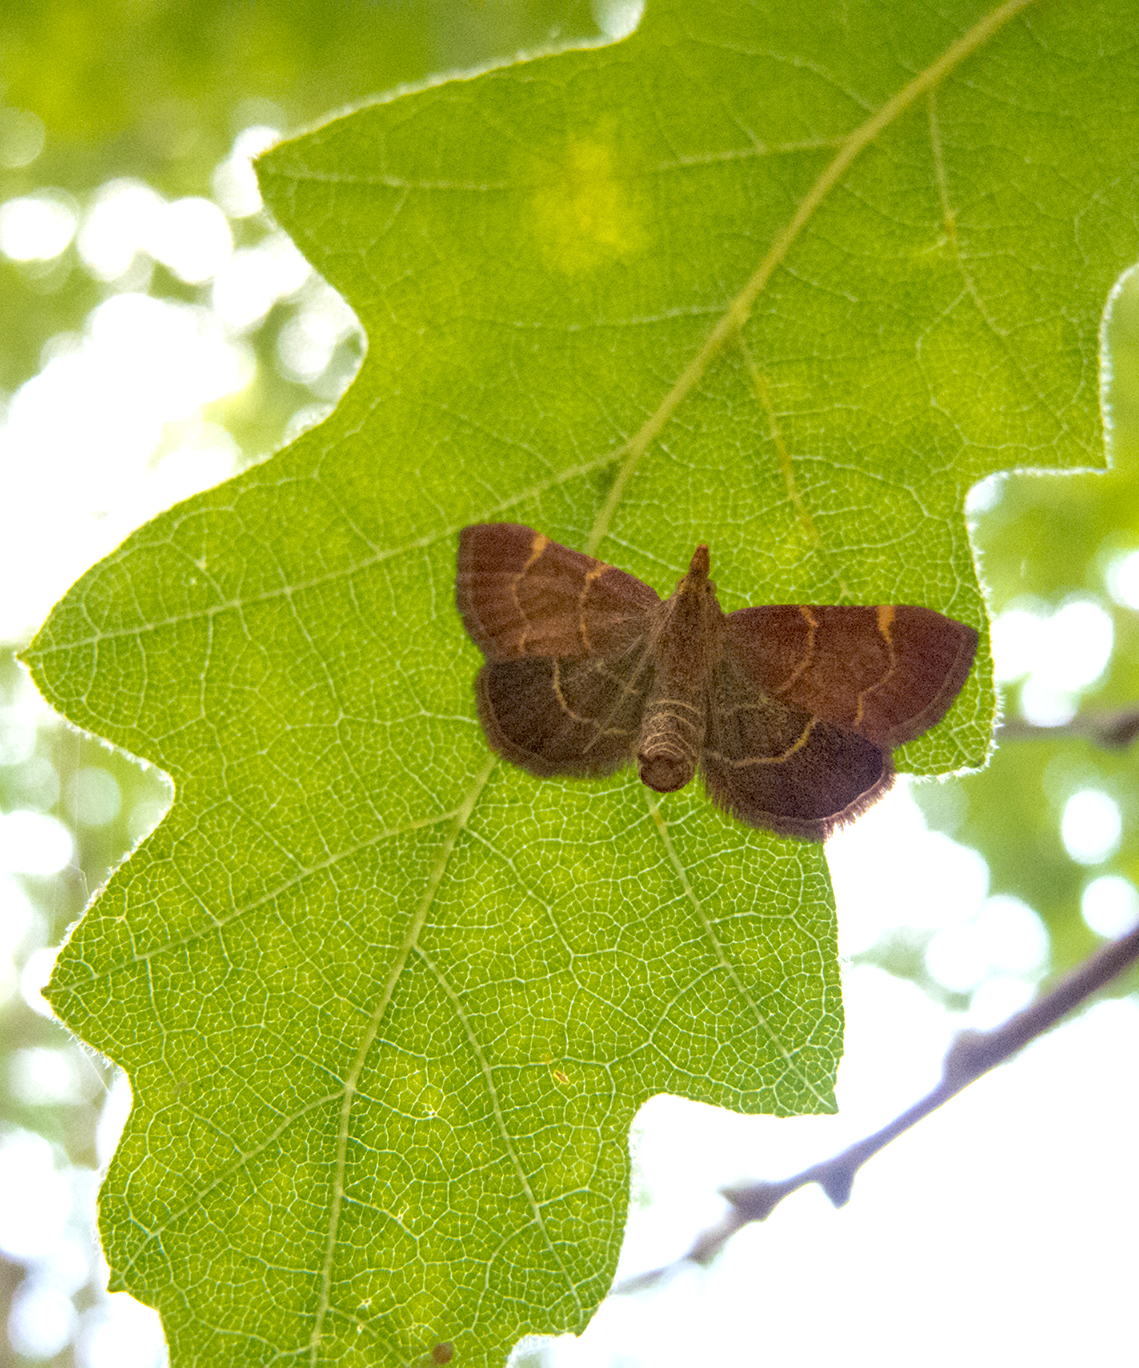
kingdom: Animalia
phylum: Arthropoda
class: Insecta
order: Lepidoptera
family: Pyralidae
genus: Herculia
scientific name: Herculia rubidalis
